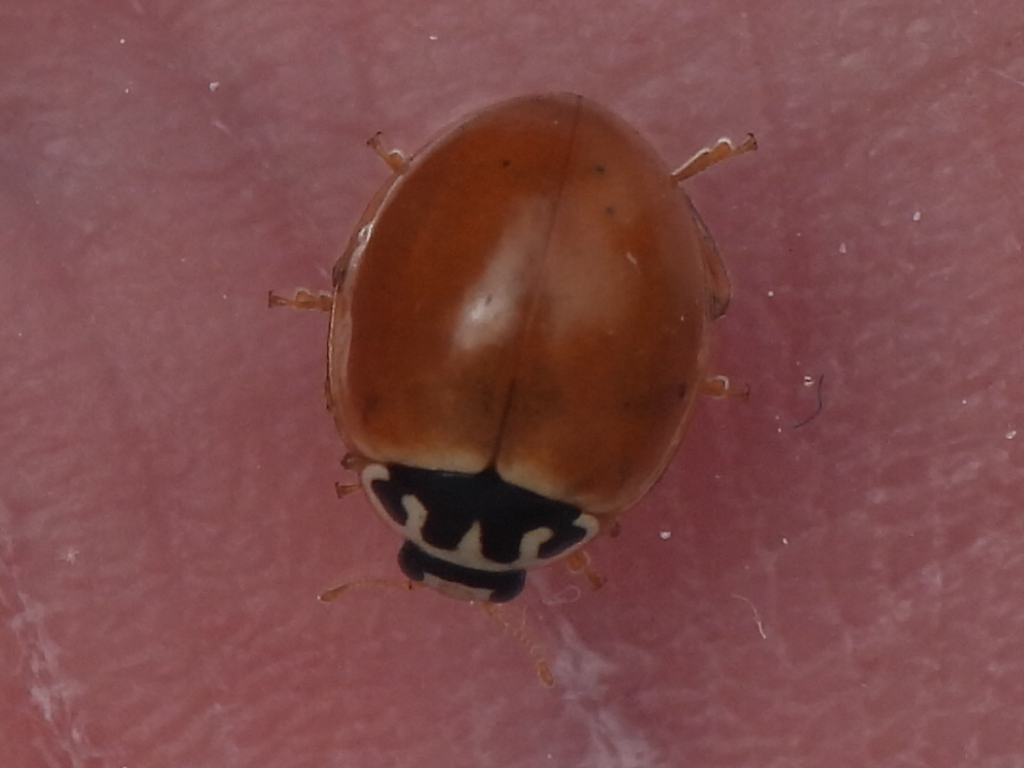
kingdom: Animalia
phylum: Arthropoda
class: Insecta
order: Coleoptera
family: Coccinellidae
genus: Cycloneda
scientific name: Cycloneda munda
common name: Polished lady beetle
